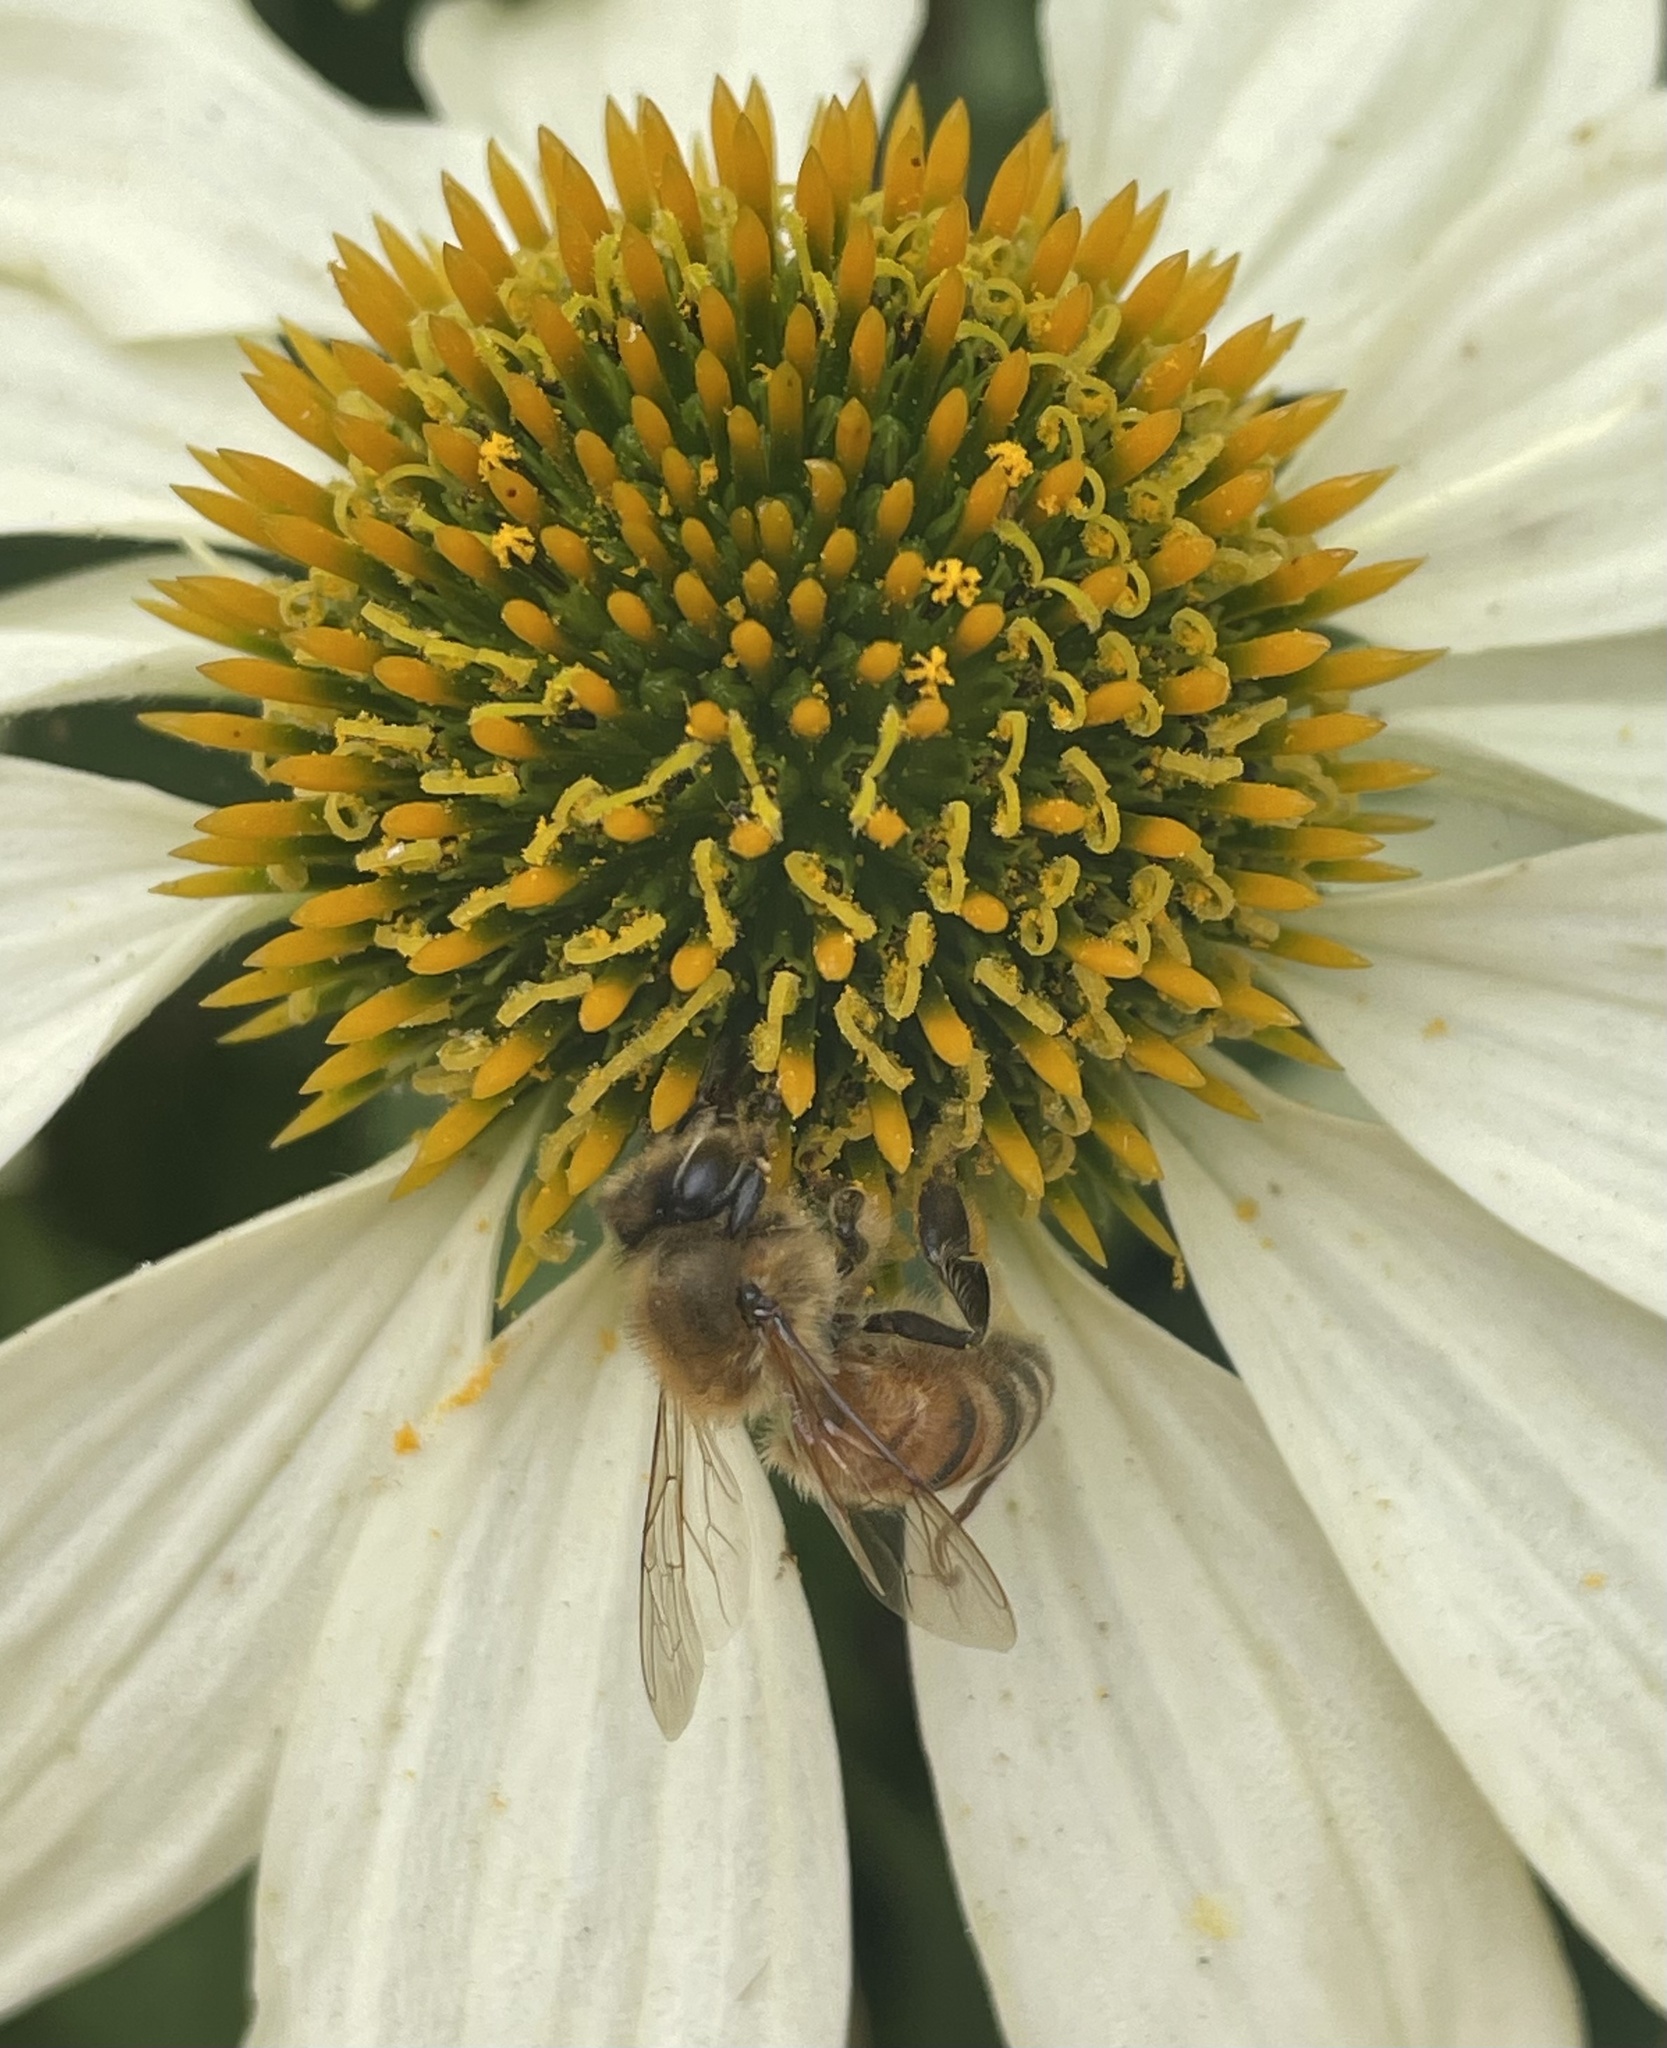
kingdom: Animalia
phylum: Arthropoda
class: Insecta
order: Hymenoptera
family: Apidae
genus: Apis
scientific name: Apis mellifera
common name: Honey bee
